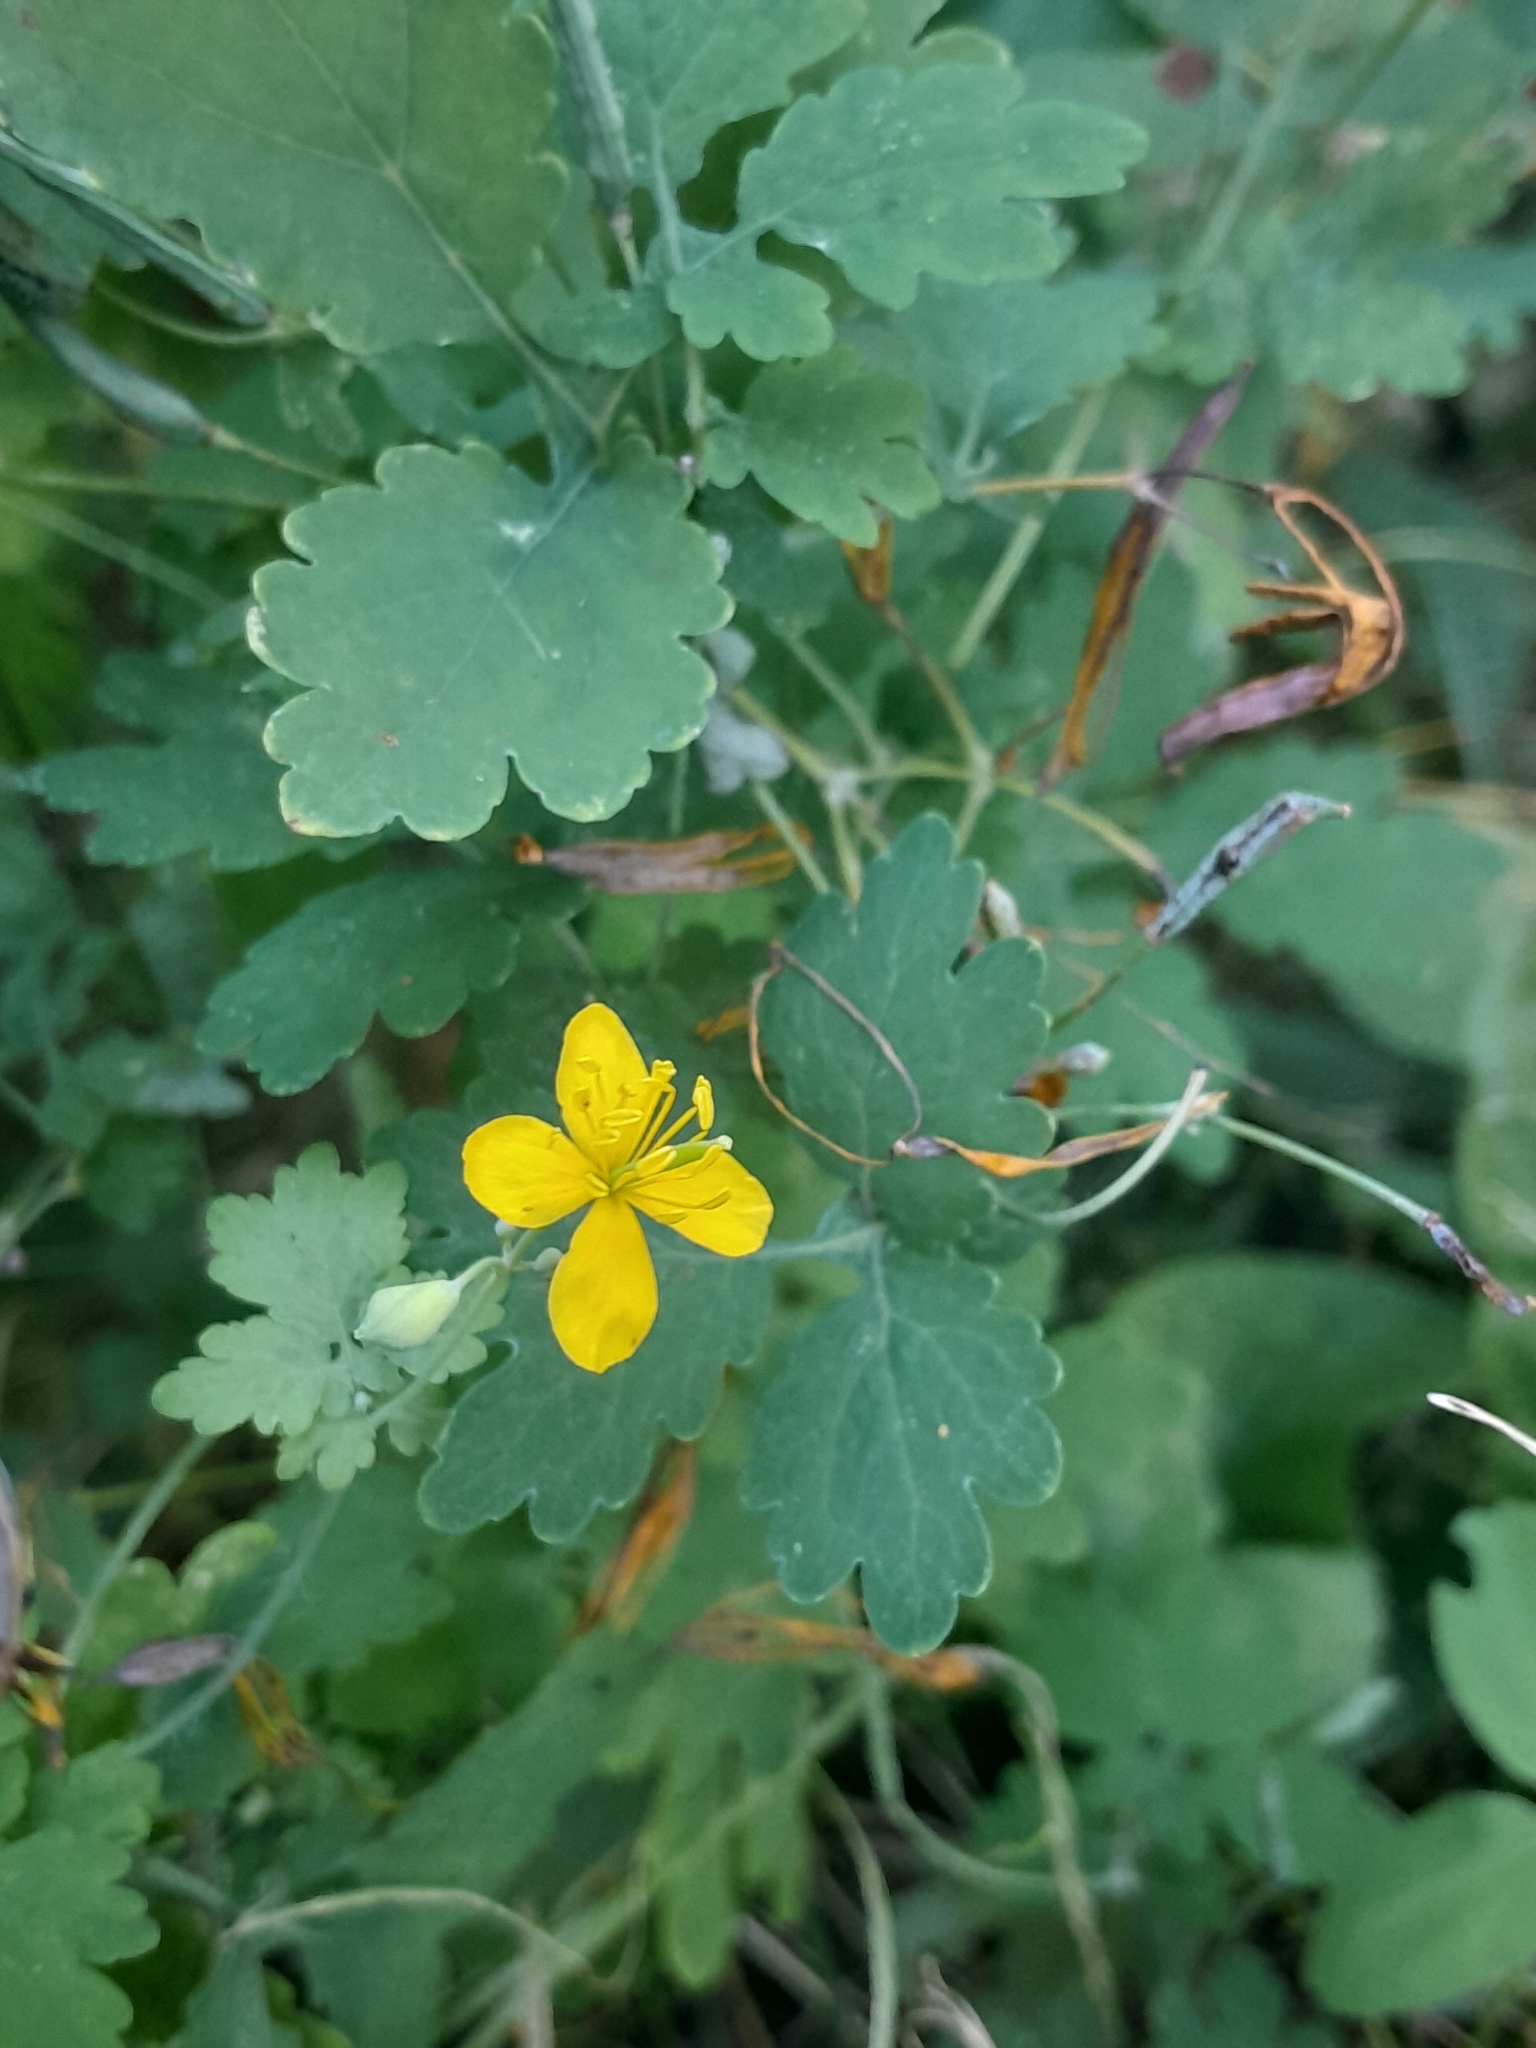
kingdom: Plantae
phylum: Tracheophyta
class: Magnoliopsida
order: Ranunculales
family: Papaveraceae
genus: Chelidonium
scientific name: Chelidonium majus
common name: Greater celandine
